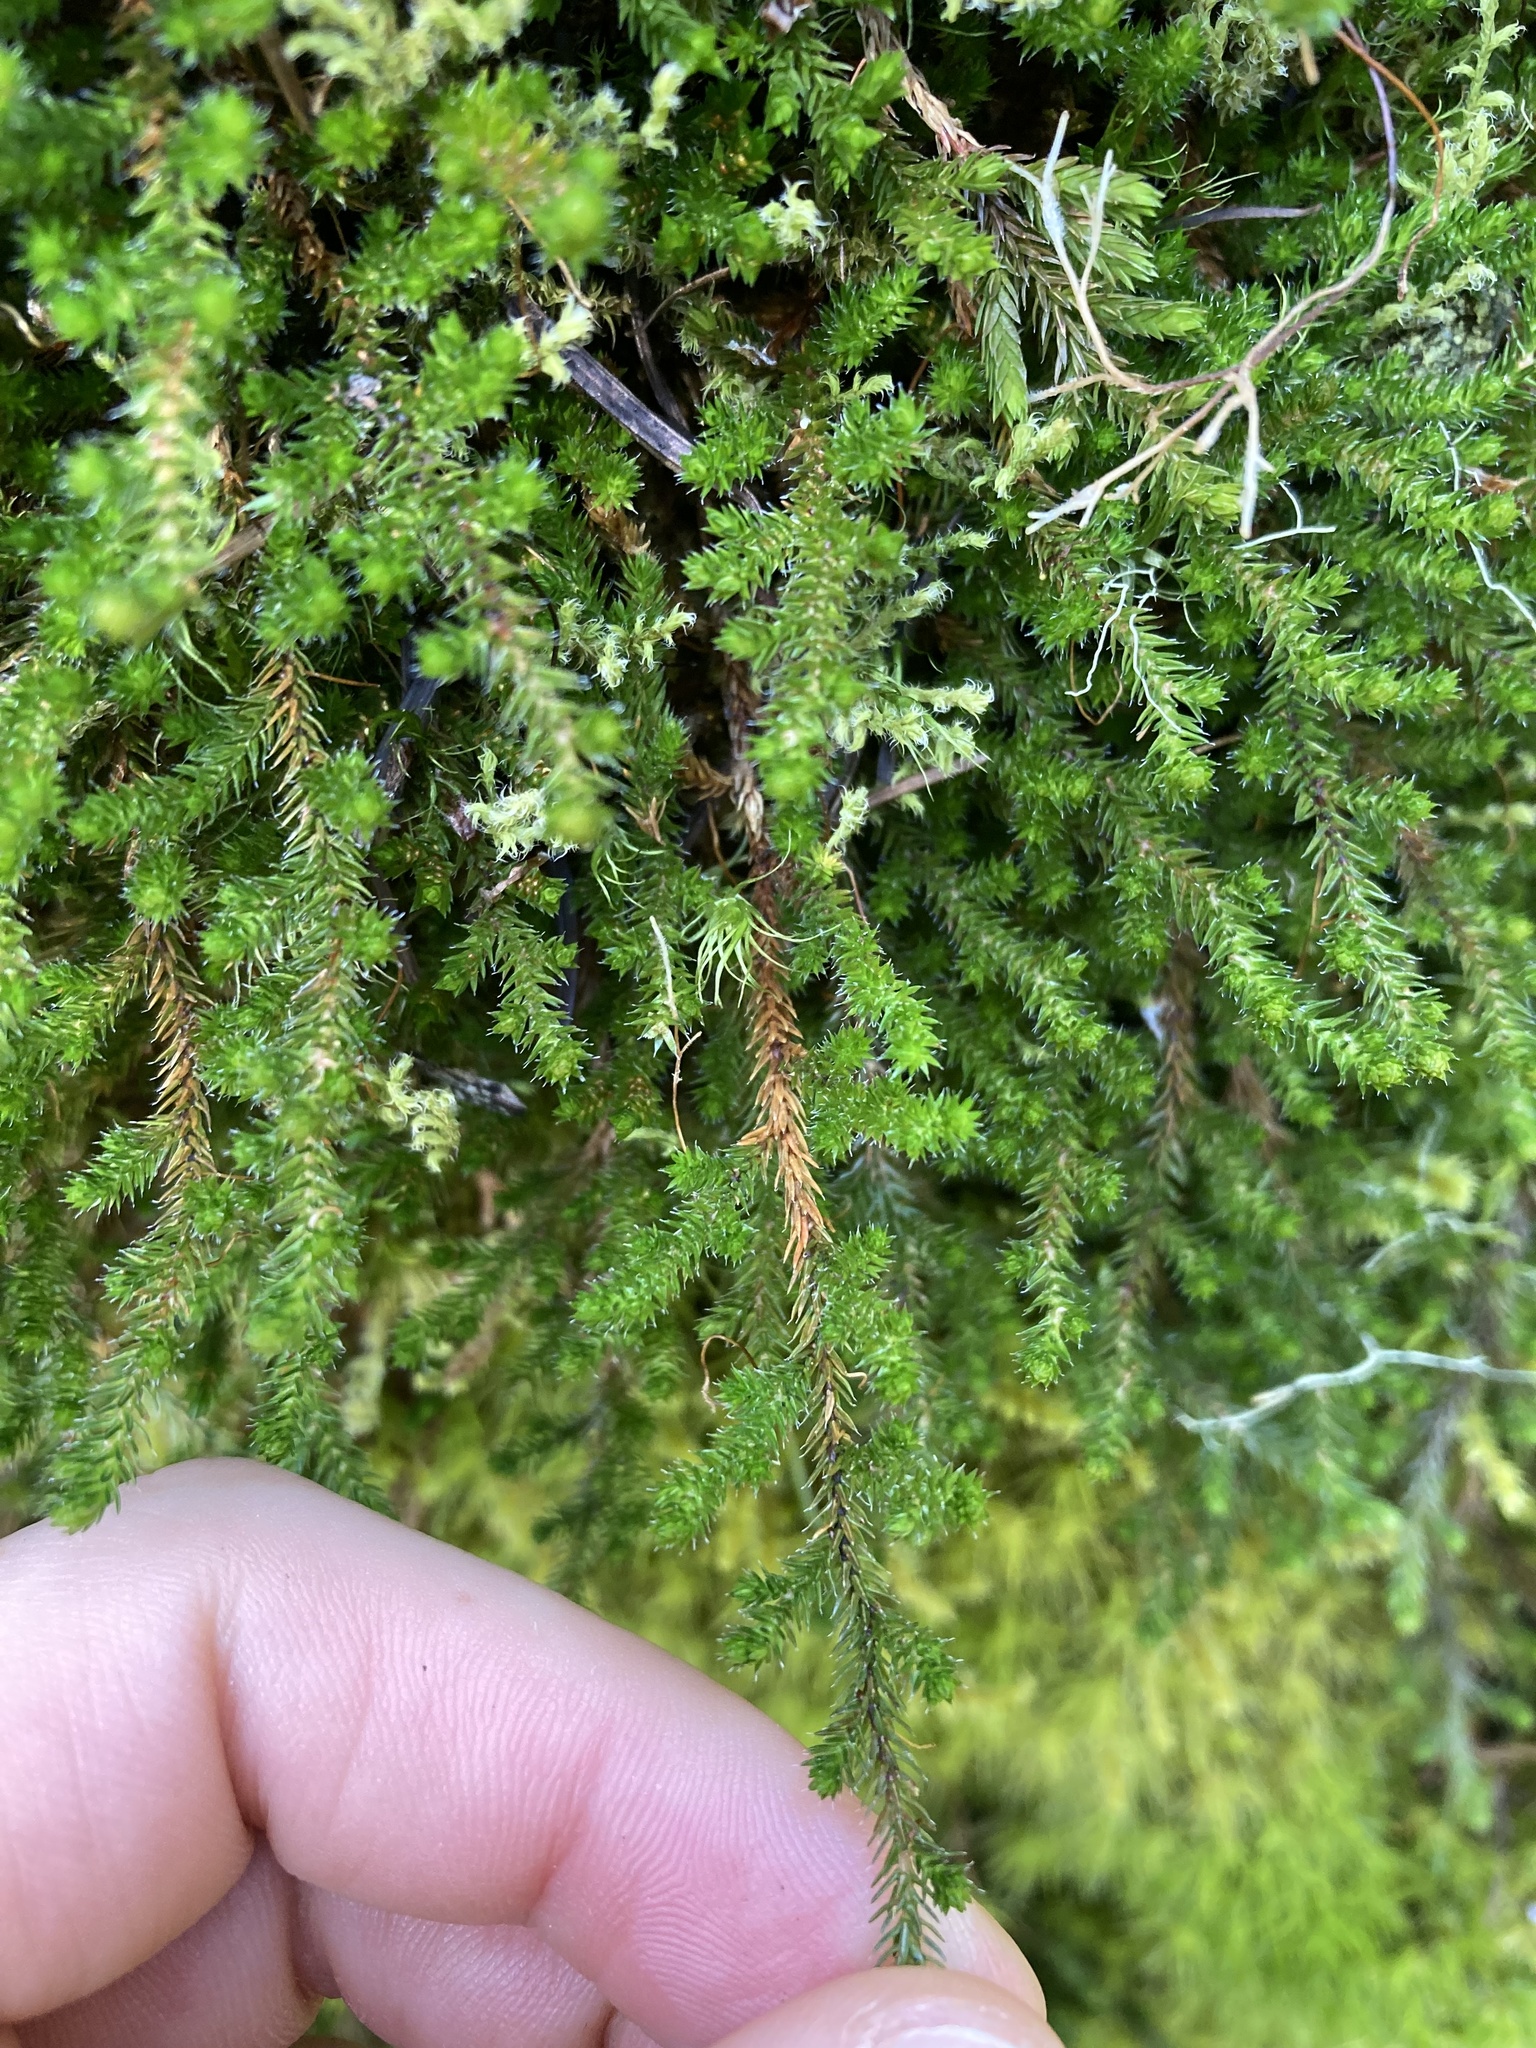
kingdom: Plantae
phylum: Tracheophyta
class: Lycopodiopsida
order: Selaginellales
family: Selaginellaceae
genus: Selaginella
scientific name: Selaginella wallacei
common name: Wallace's selaginella
